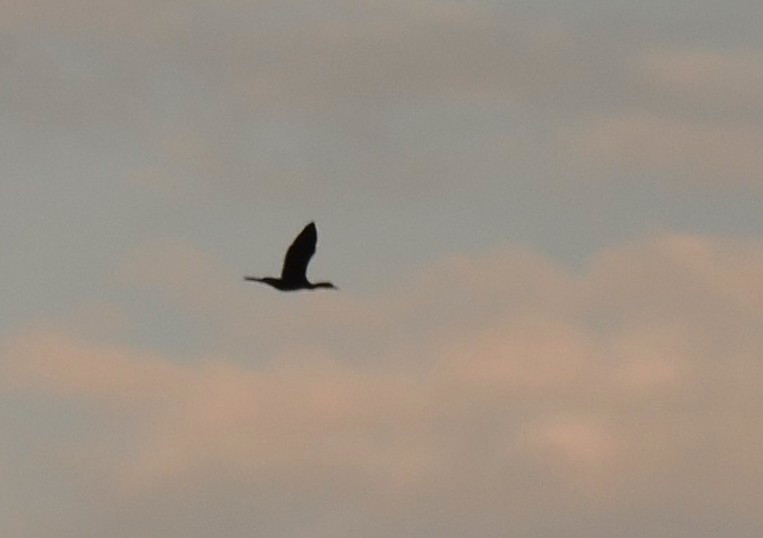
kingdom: Animalia
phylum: Chordata
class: Aves
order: Suliformes
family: Phalacrocoracidae
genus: Microcarbo
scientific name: Microcarbo niger
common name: Little cormorant
